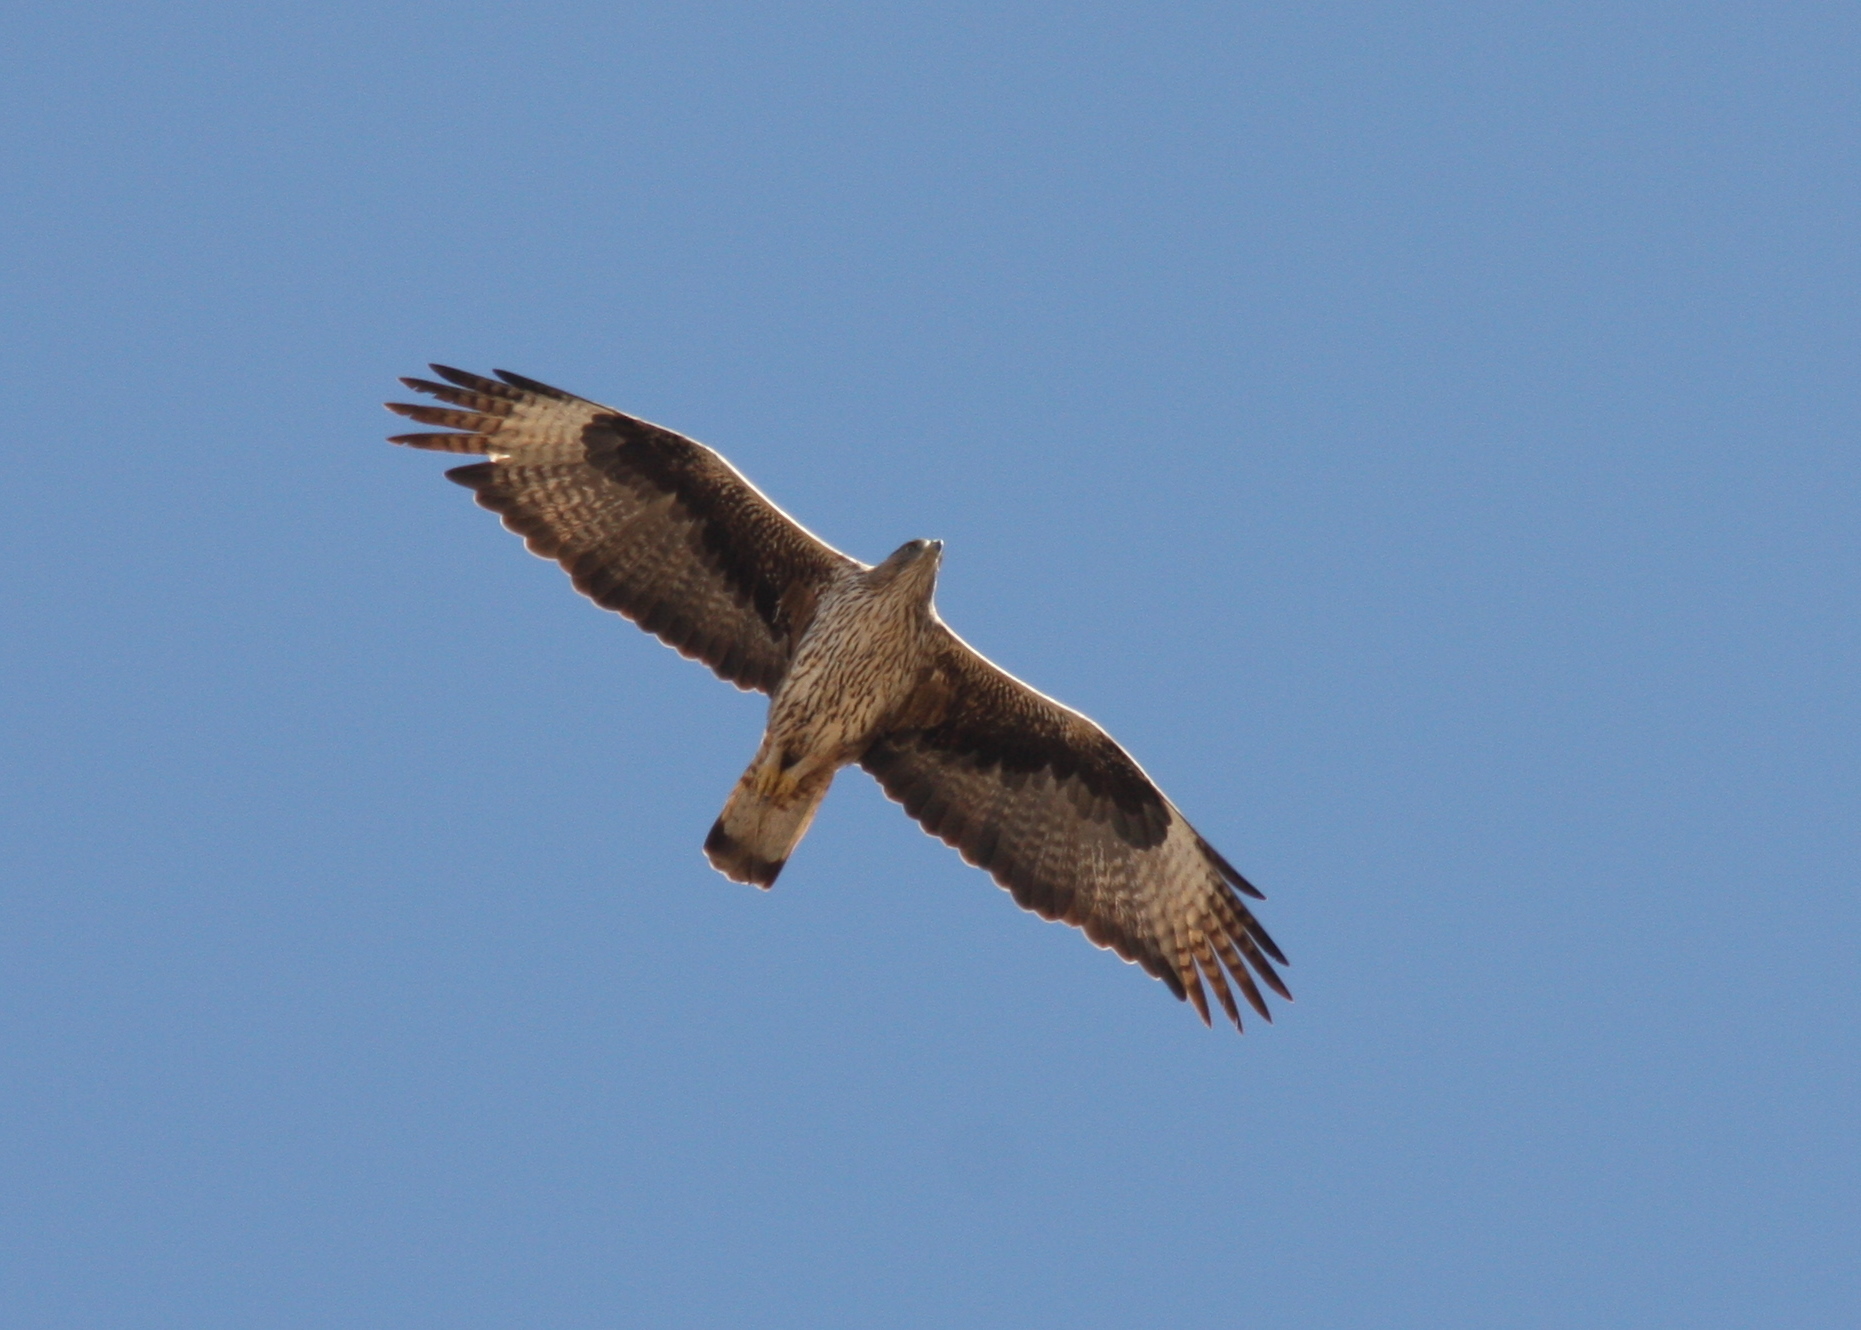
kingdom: Animalia
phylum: Chordata
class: Aves
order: Accipitriformes
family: Accipitridae
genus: Aquila
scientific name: Aquila fasciata
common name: Bonelli's eagle
